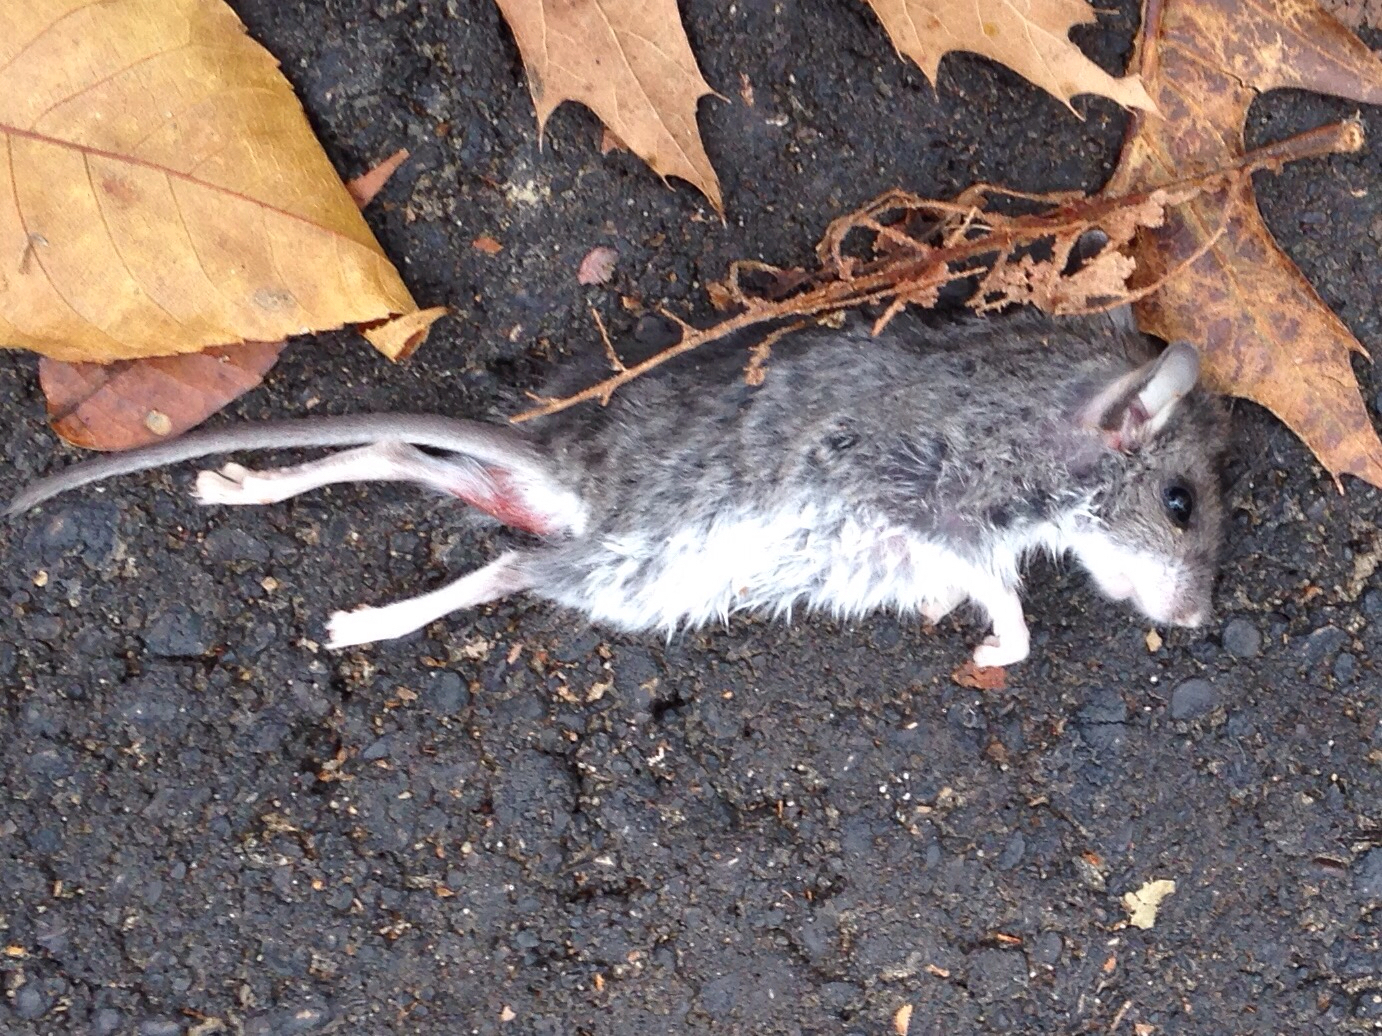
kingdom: Animalia
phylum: Chordata
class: Mammalia
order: Rodentia
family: Cricetidae
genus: Peromyscus
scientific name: Peromyscus leucopus
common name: White-footed deermouse
